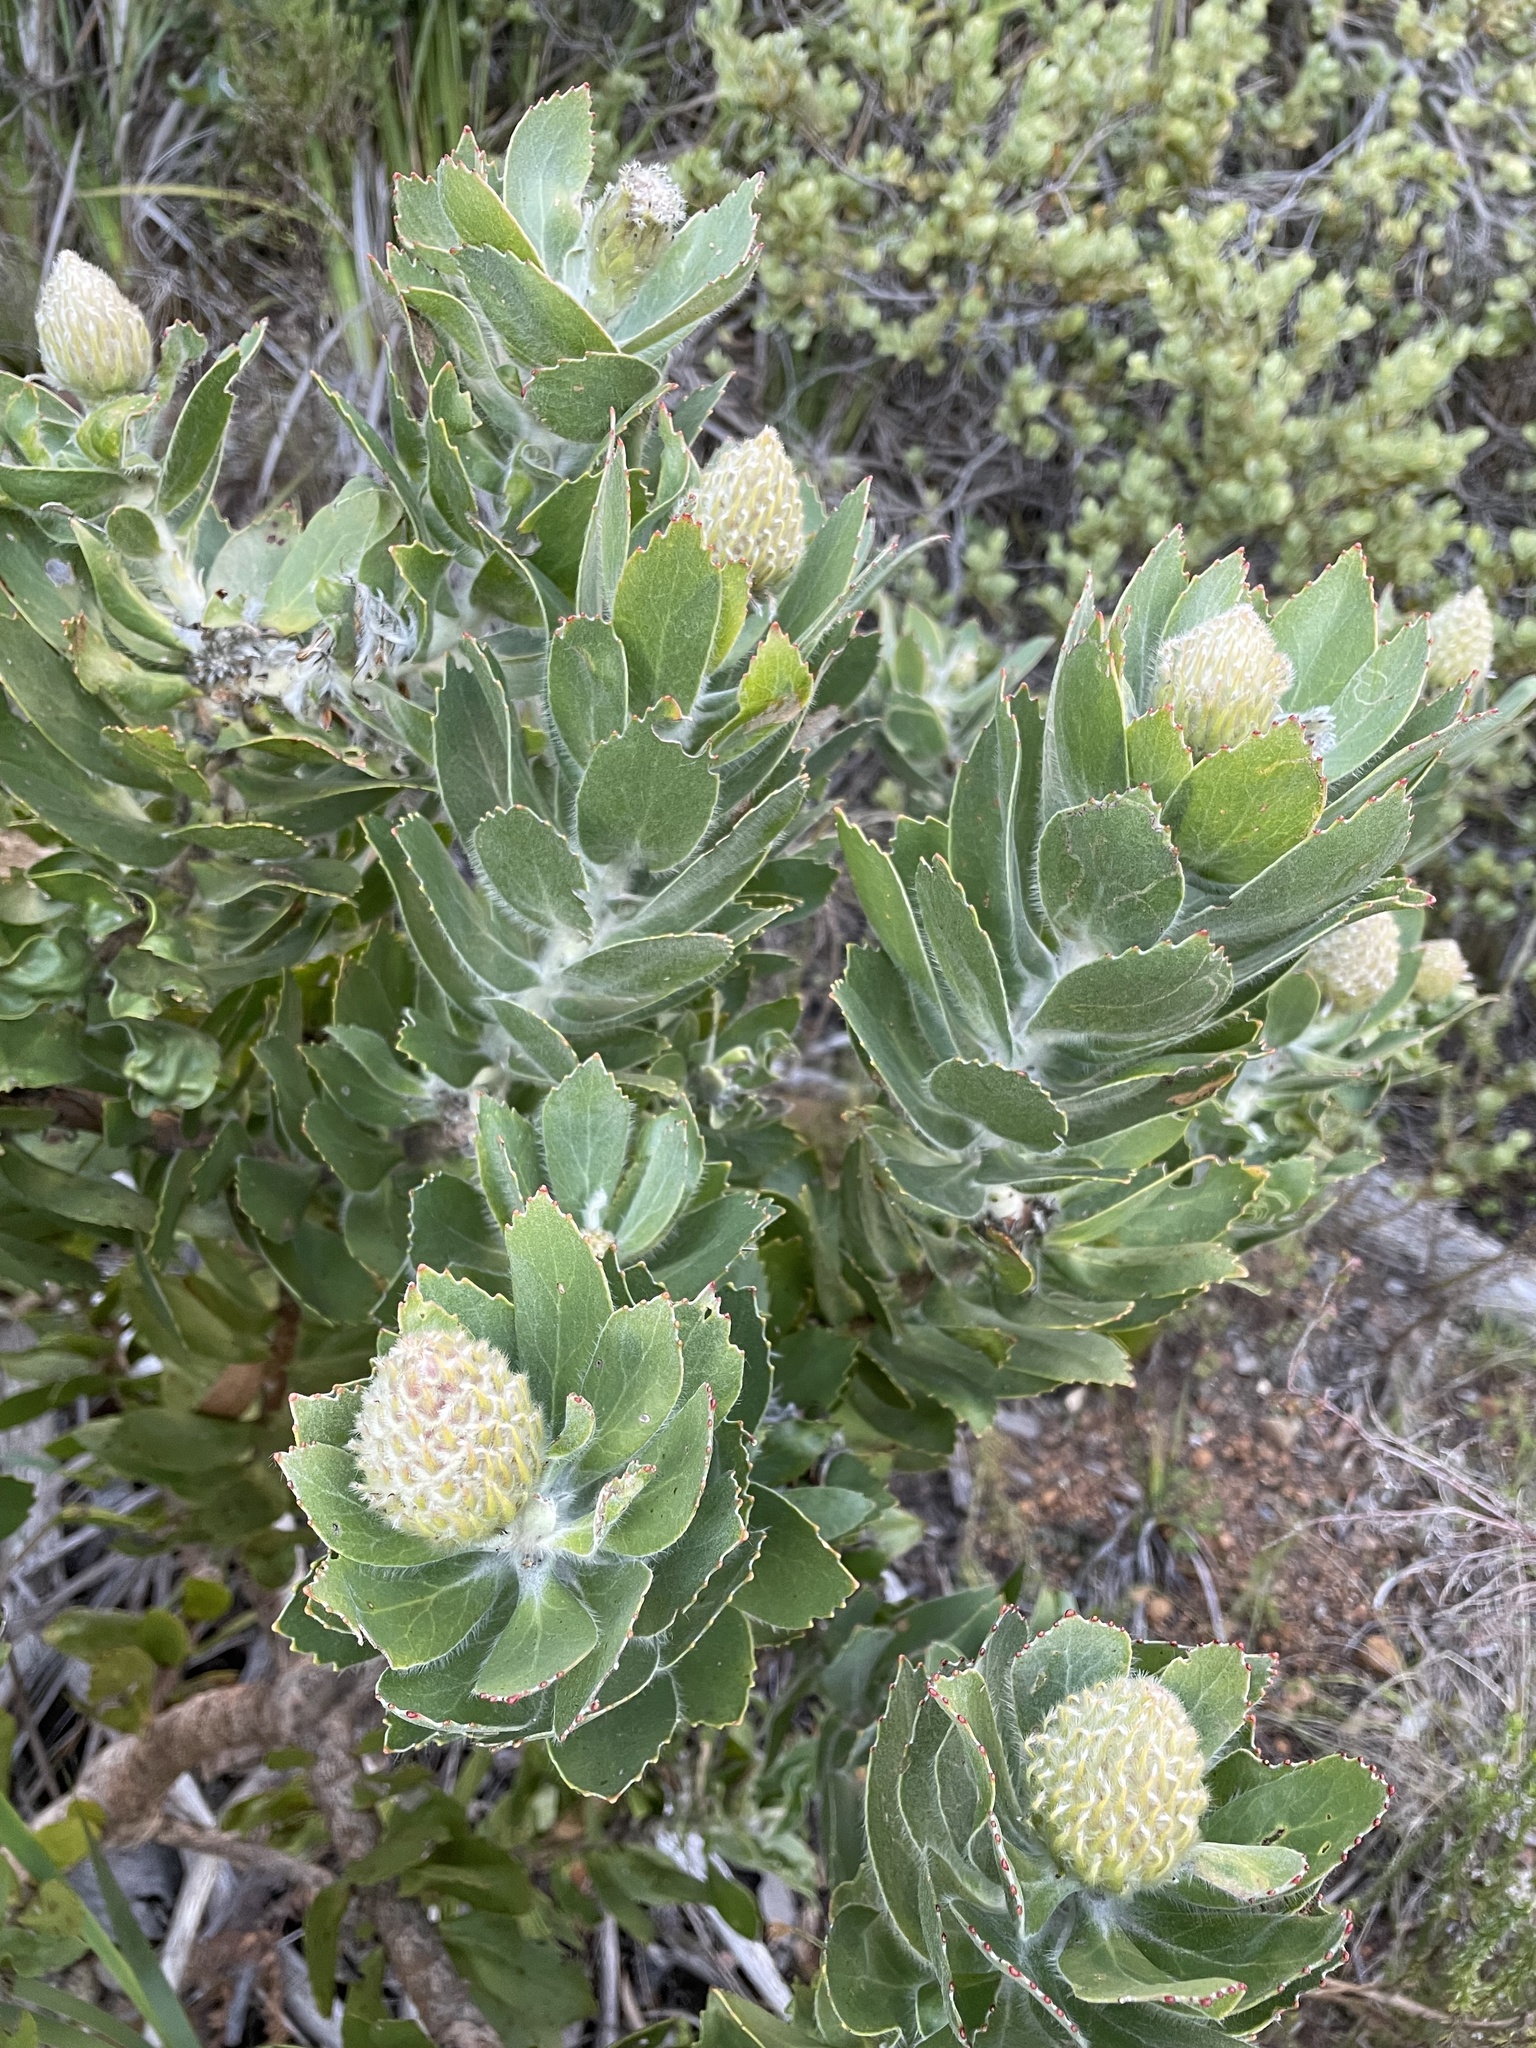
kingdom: Plantae
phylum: Tracheophyta
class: Magnoliopsida
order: Proteales
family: Proteaceae
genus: Leucospermum
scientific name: Leucospermum conocarpodendron
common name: Tree pincushion
